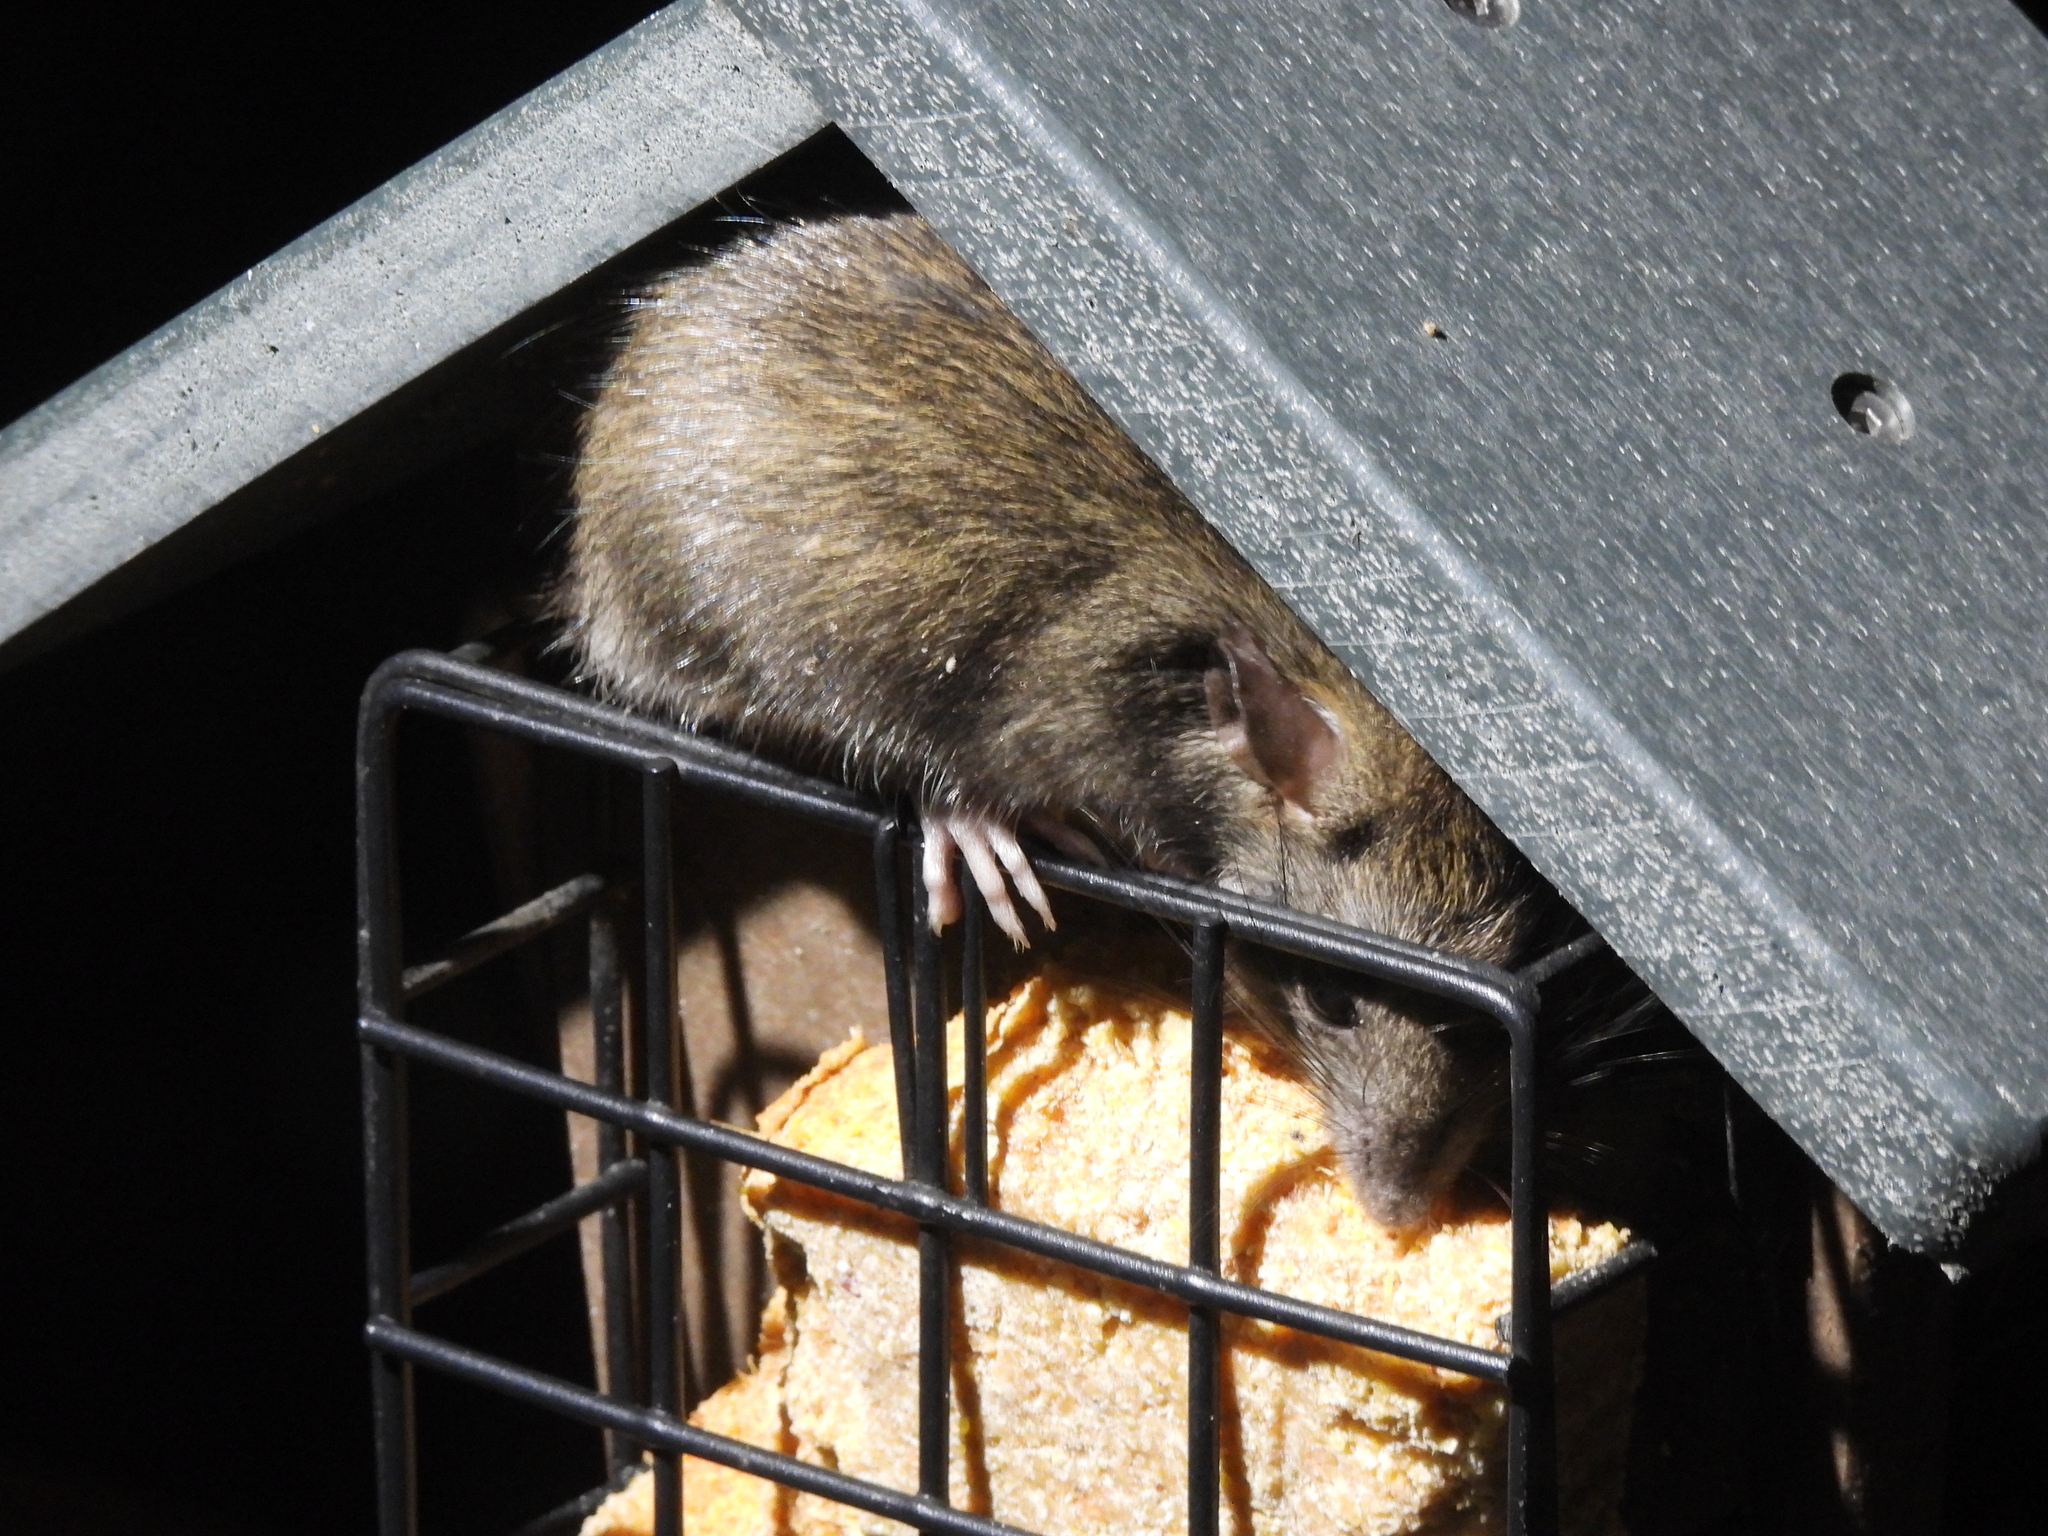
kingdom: Animalia
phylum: Chordata
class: Mammalia
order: Rodentia
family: Muridae
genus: Rattus
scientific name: Rattus rattus
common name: Black rat
